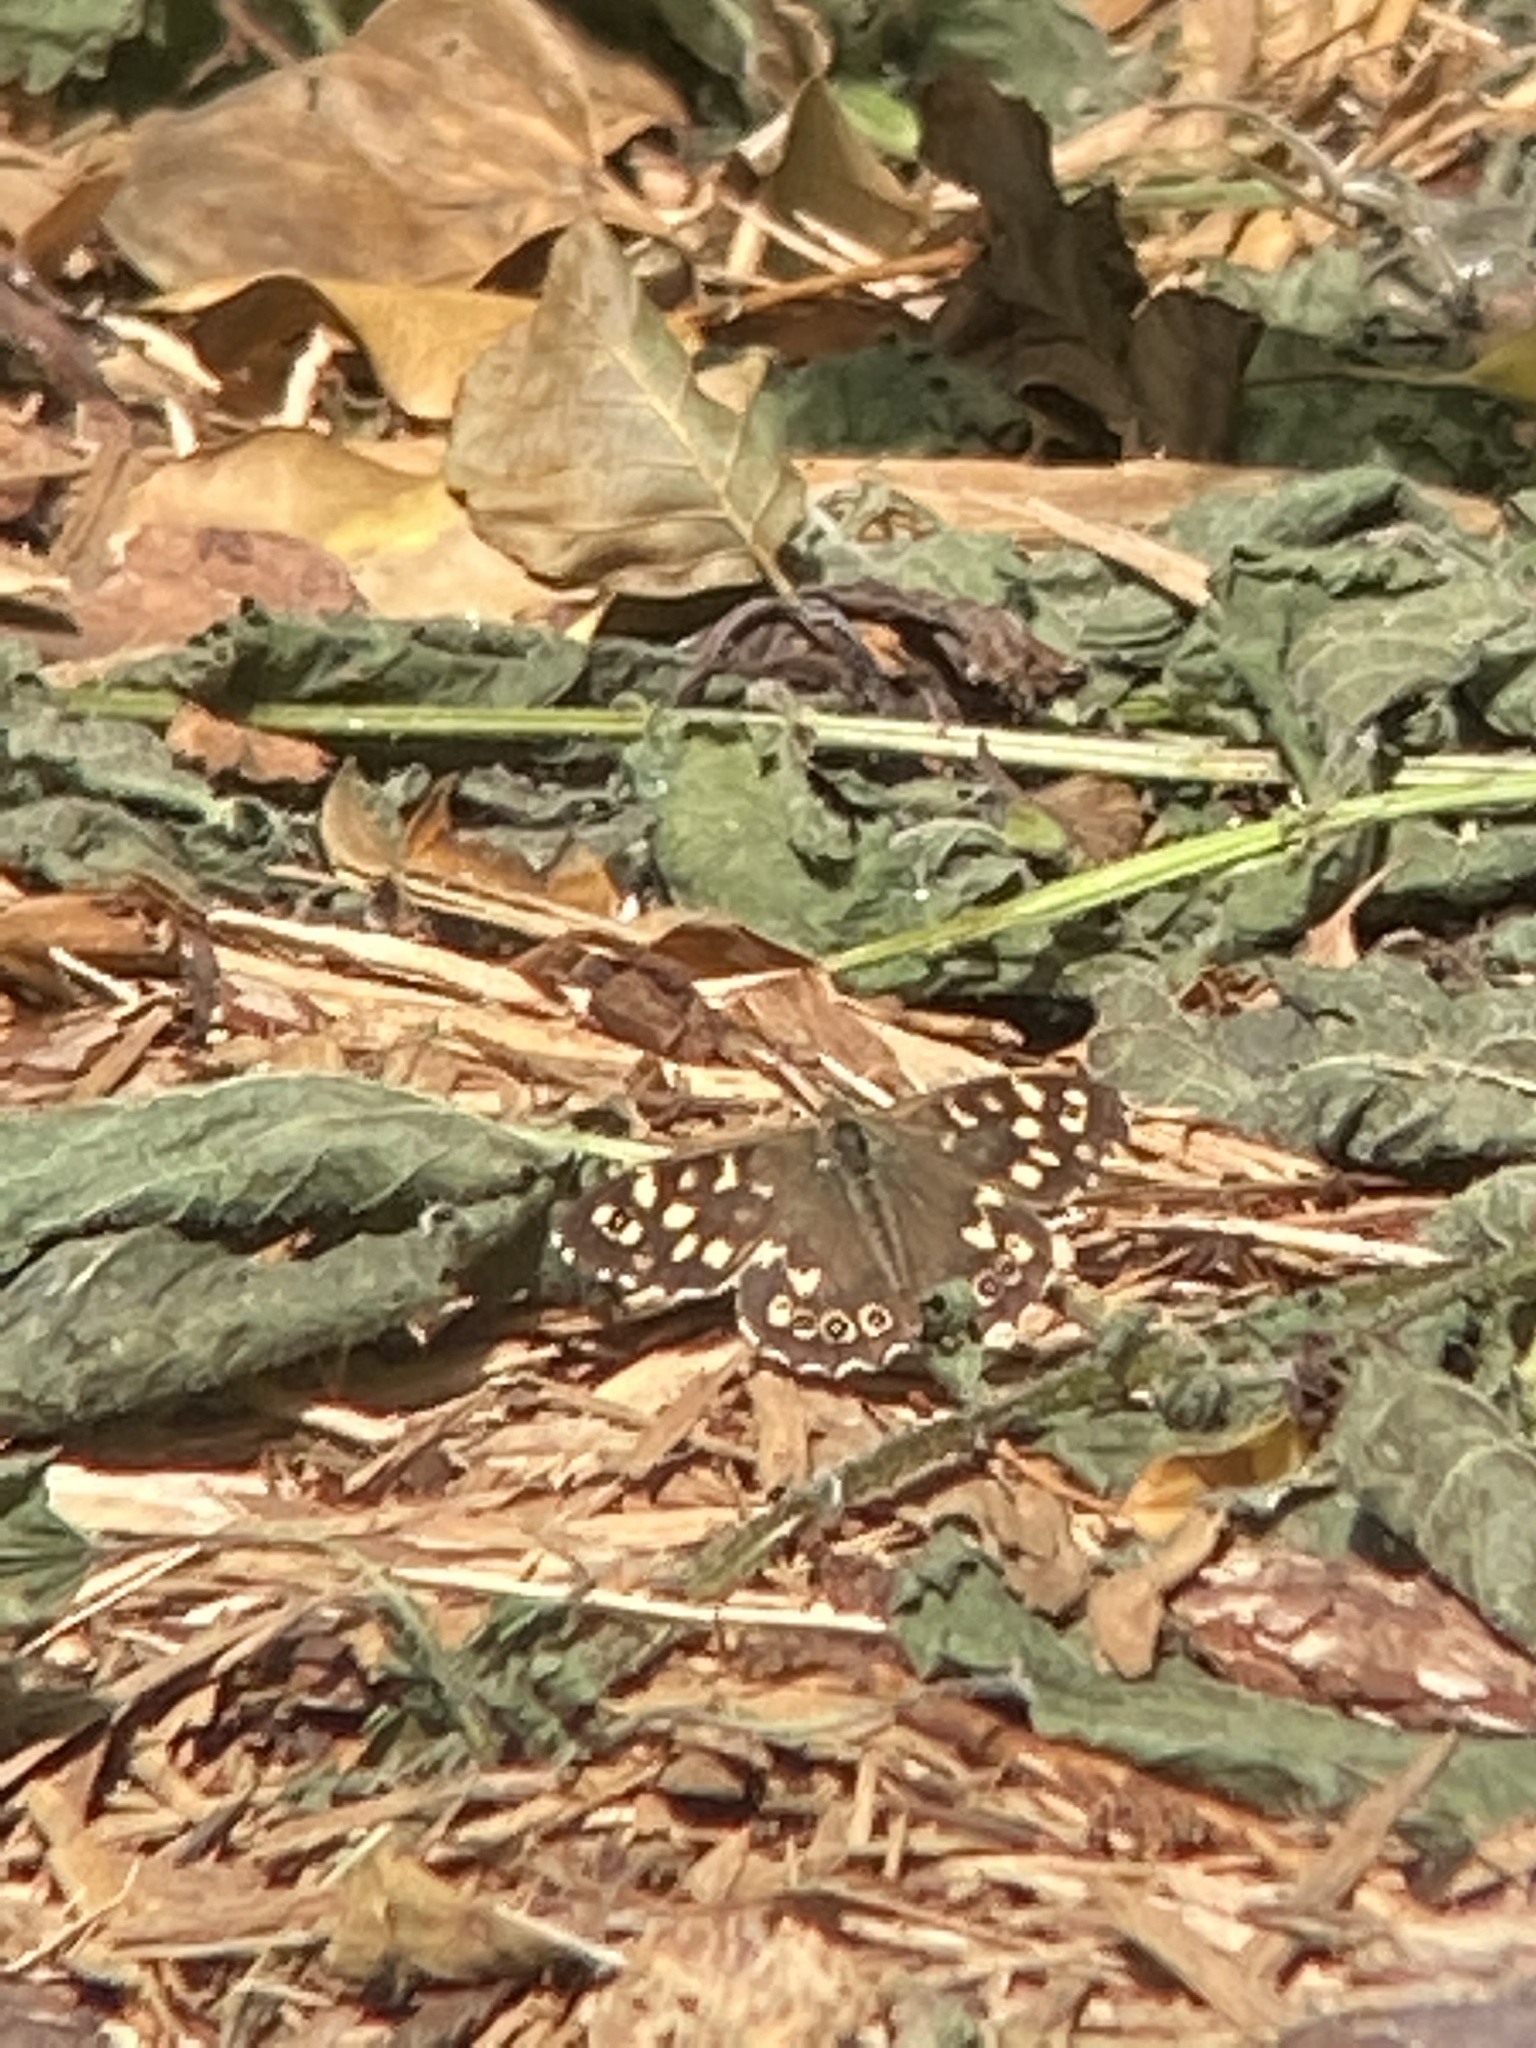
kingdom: Animalia
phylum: Arthropoda
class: Insecta
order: Lepidoptera
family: Nymphalidae
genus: Pararge
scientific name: Pararge aegeria
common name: Speckled wood
